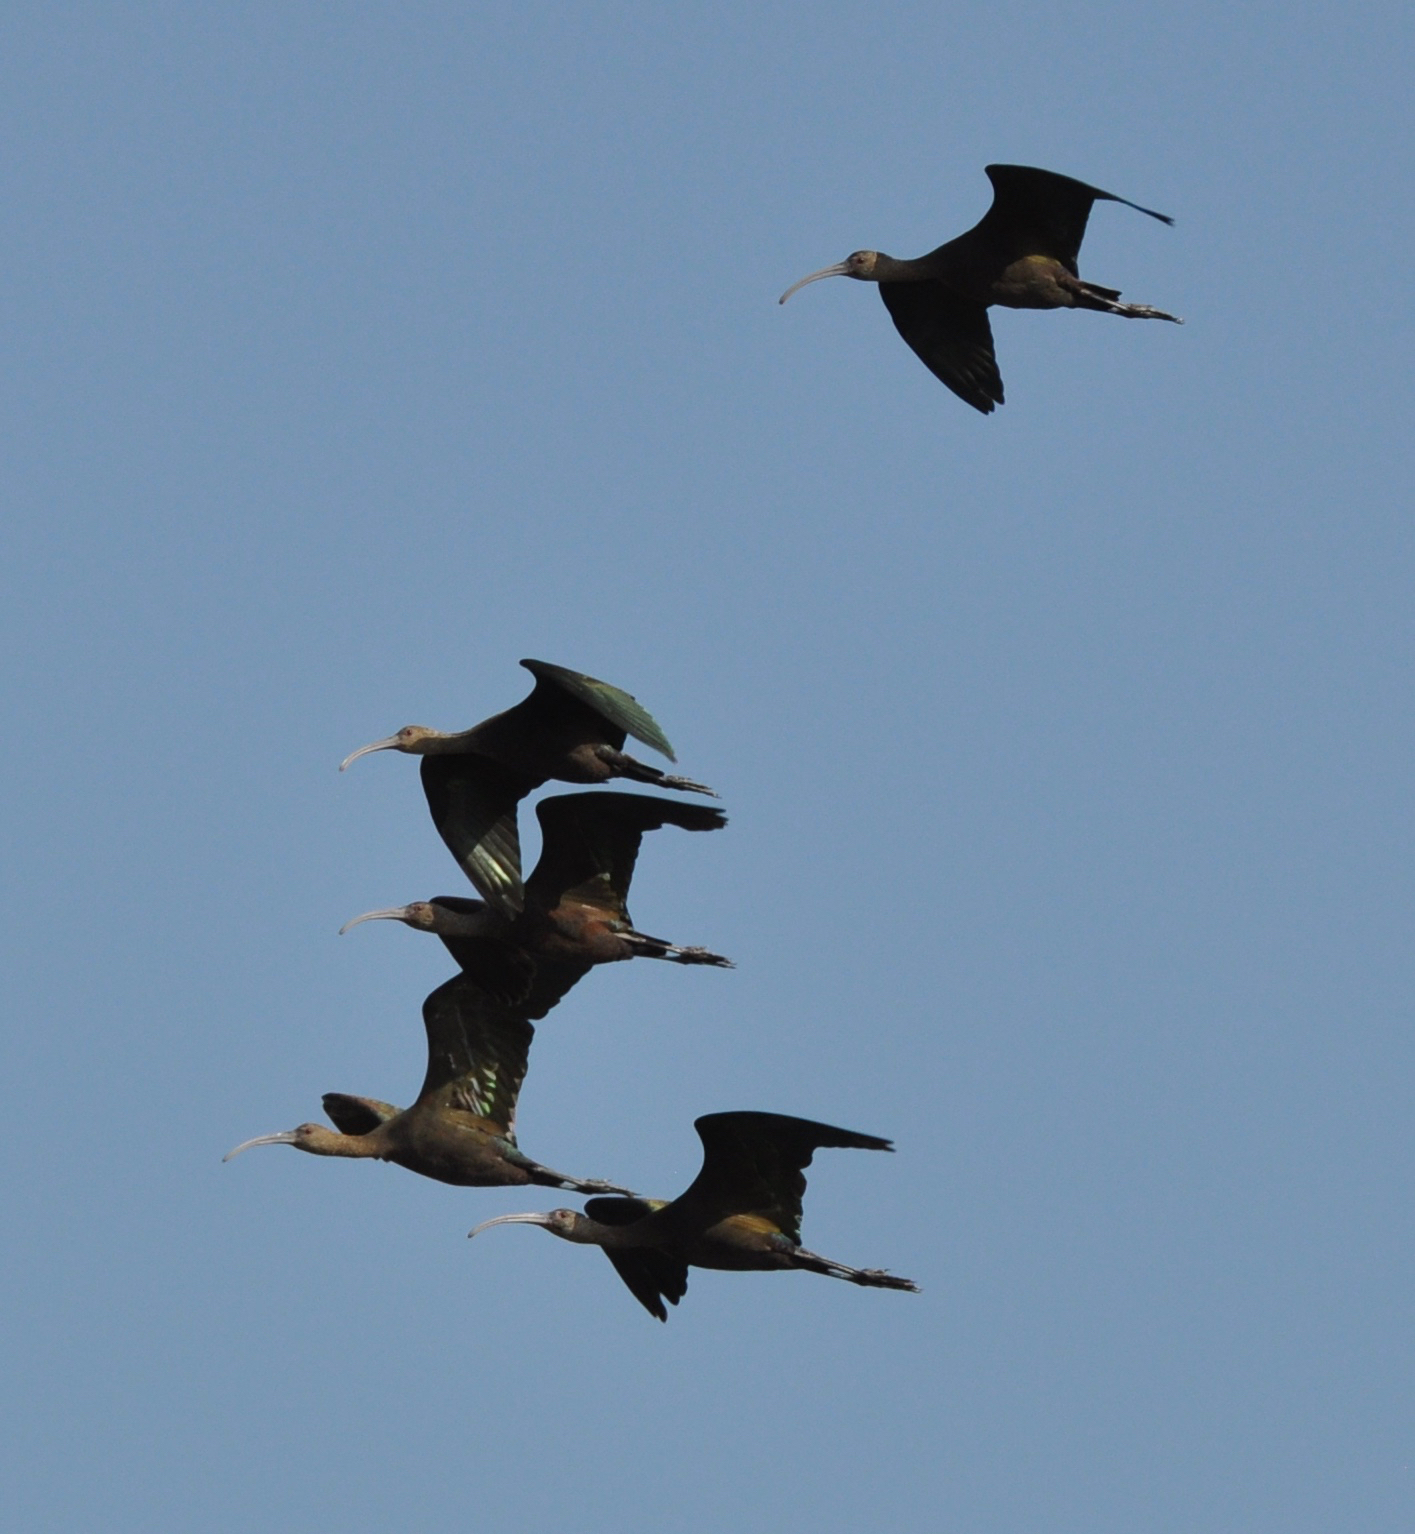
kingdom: Animalia
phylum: Chordata
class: Aves
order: Pelecaniformes
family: Threskiornithidae
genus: Plegadis
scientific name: Plegadis chihi
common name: White-faced ibis
